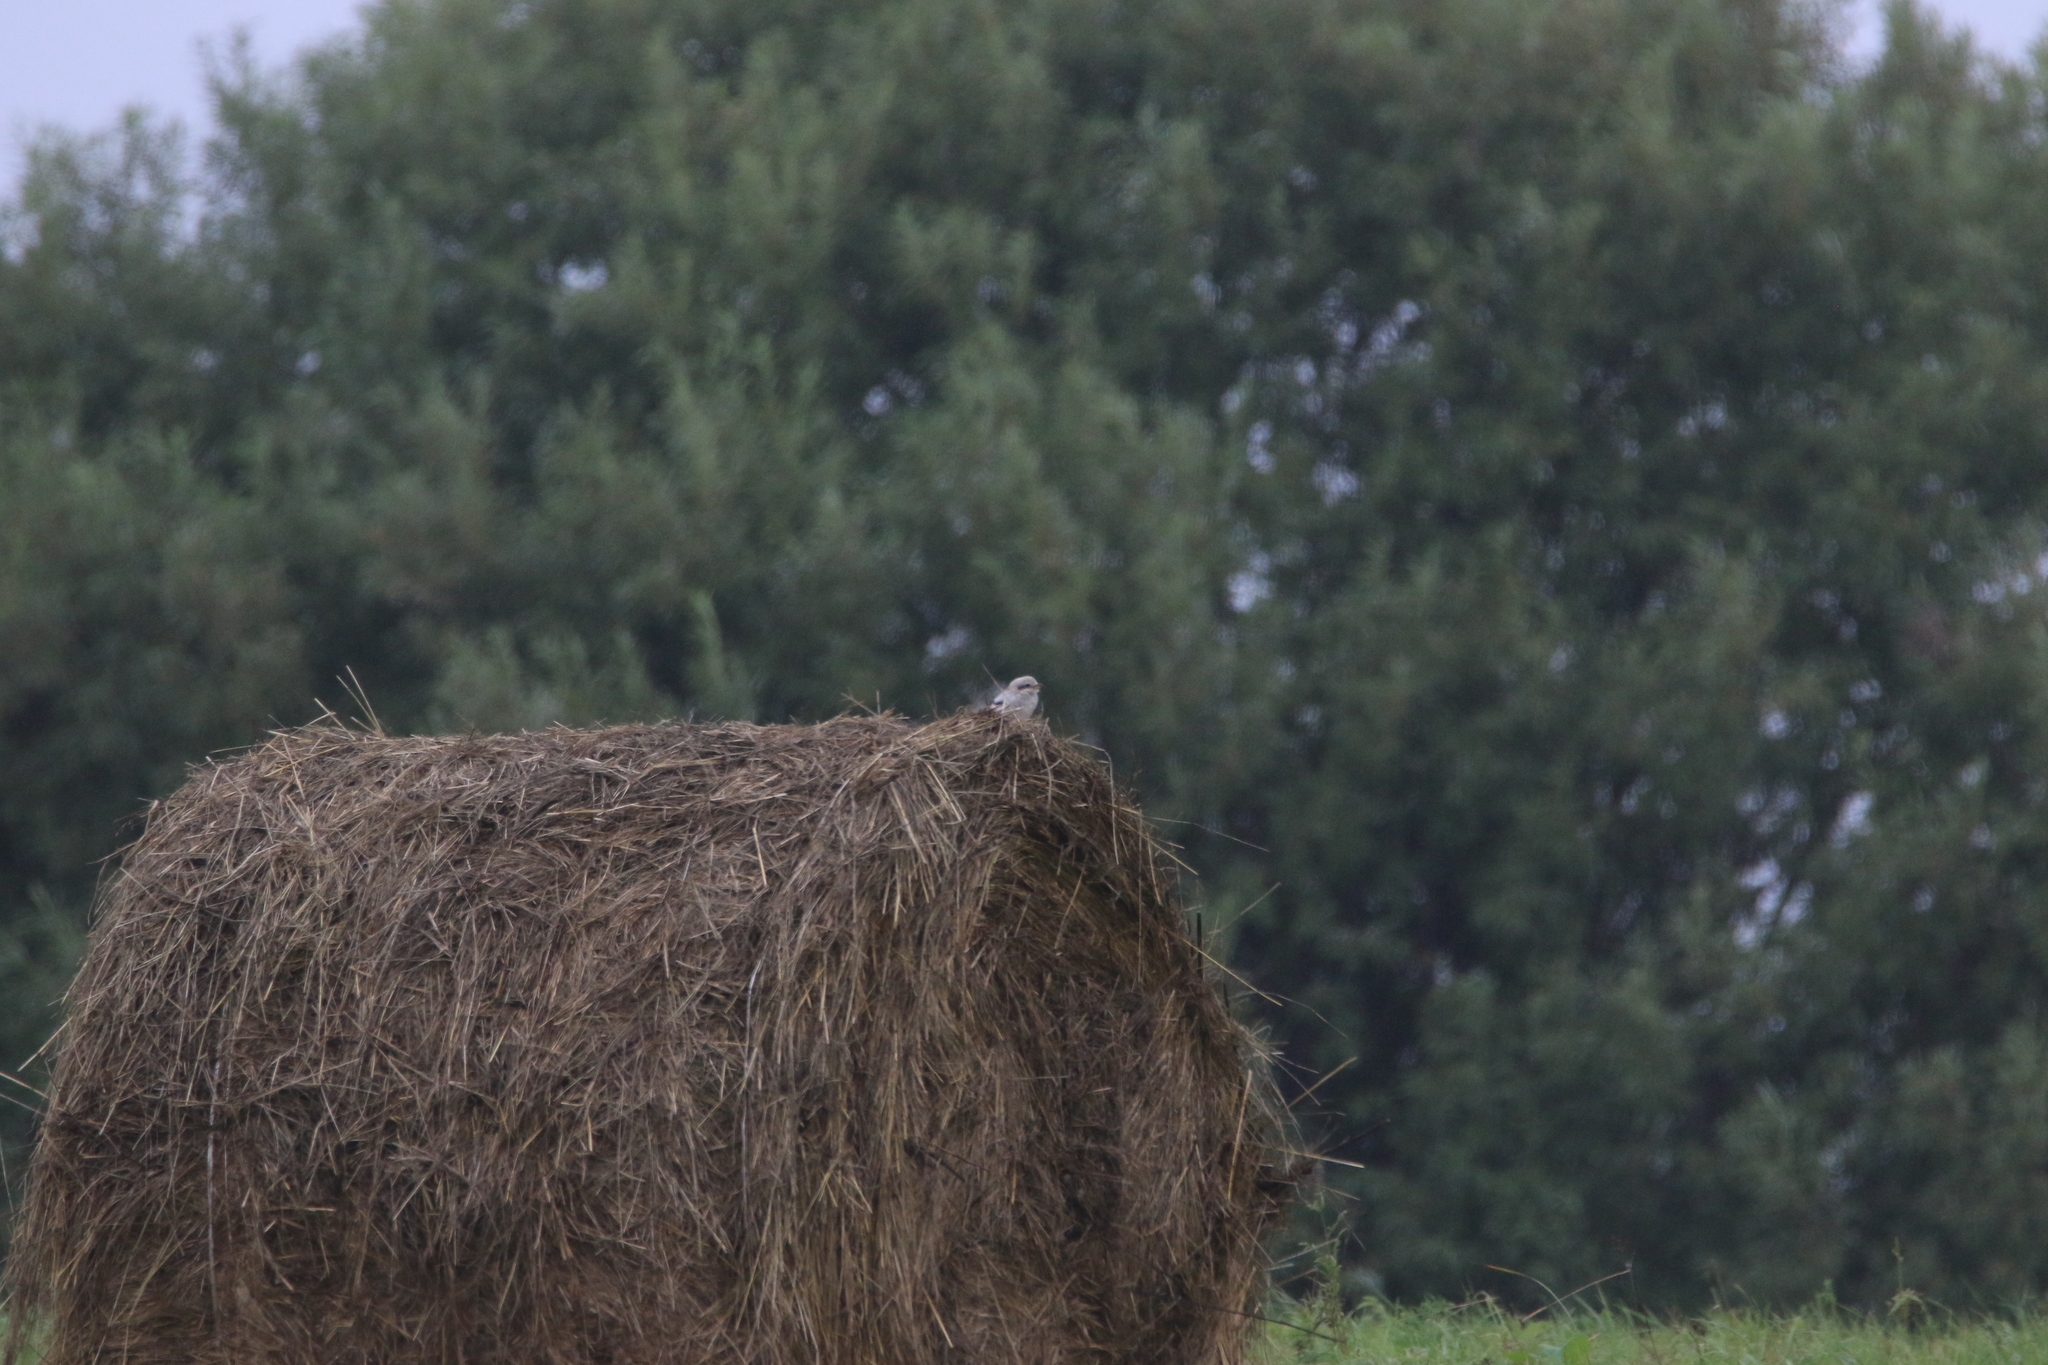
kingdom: Animalia
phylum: Chordata
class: Aves
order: Passeriformes
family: Laniidae
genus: Lanius
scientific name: Lanius excubitor
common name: Great grey shrike
